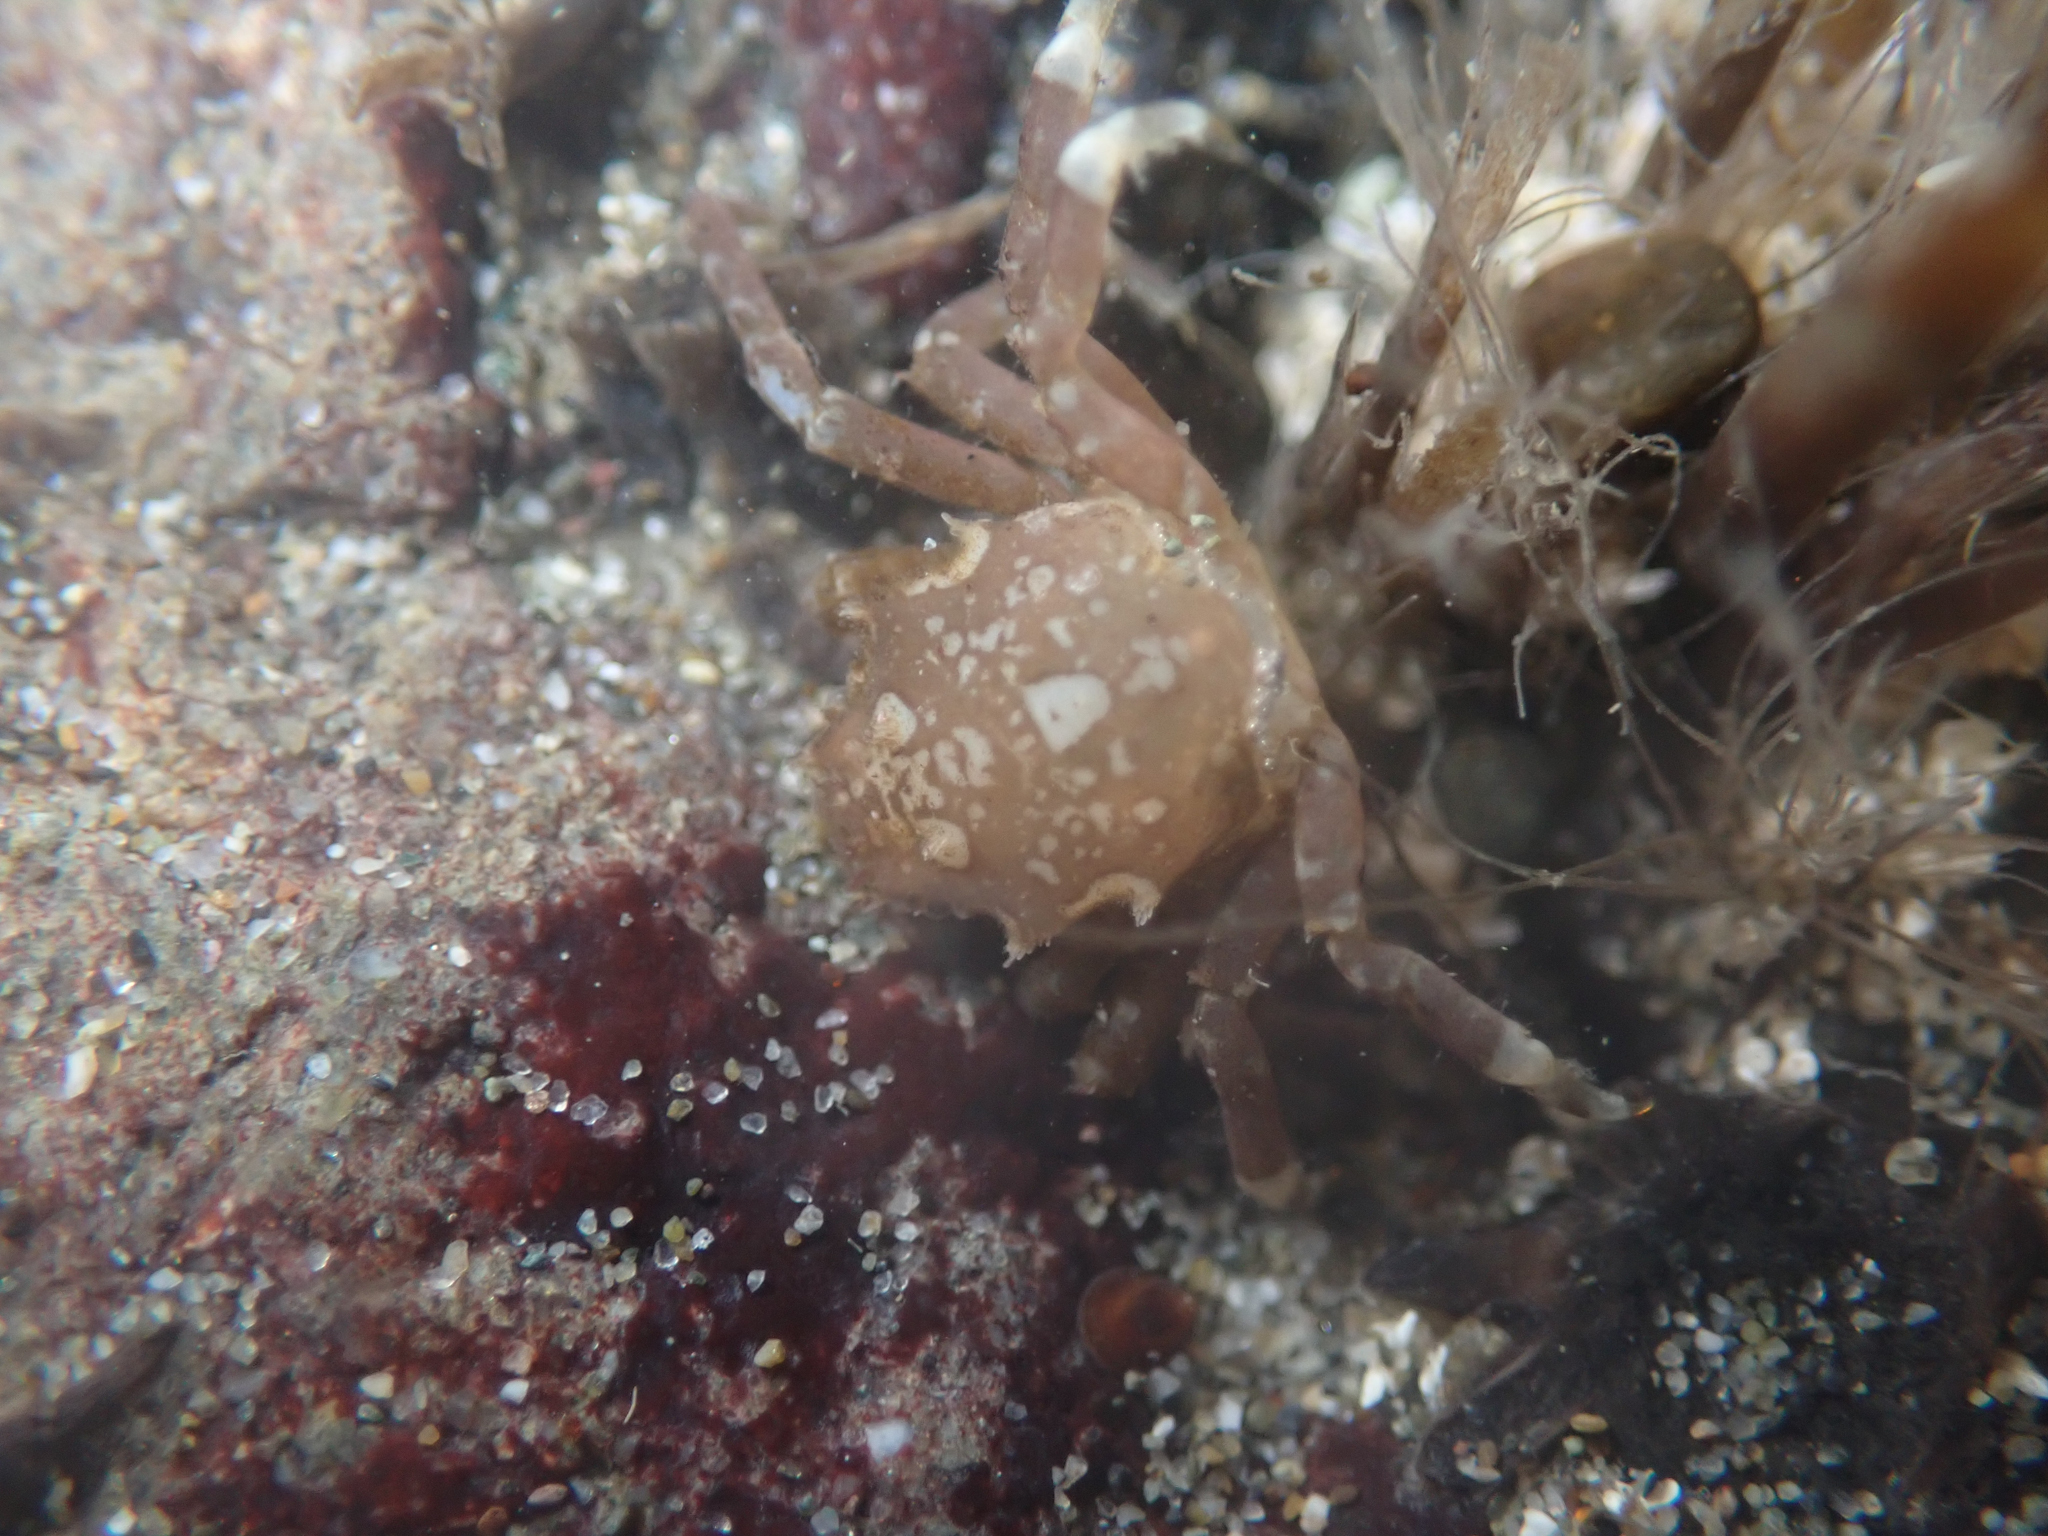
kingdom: Animalia
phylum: Arthropoda
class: Malacostraca
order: Decapoda
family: Epialtidae
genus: Pugettia
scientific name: Pugettia producta
